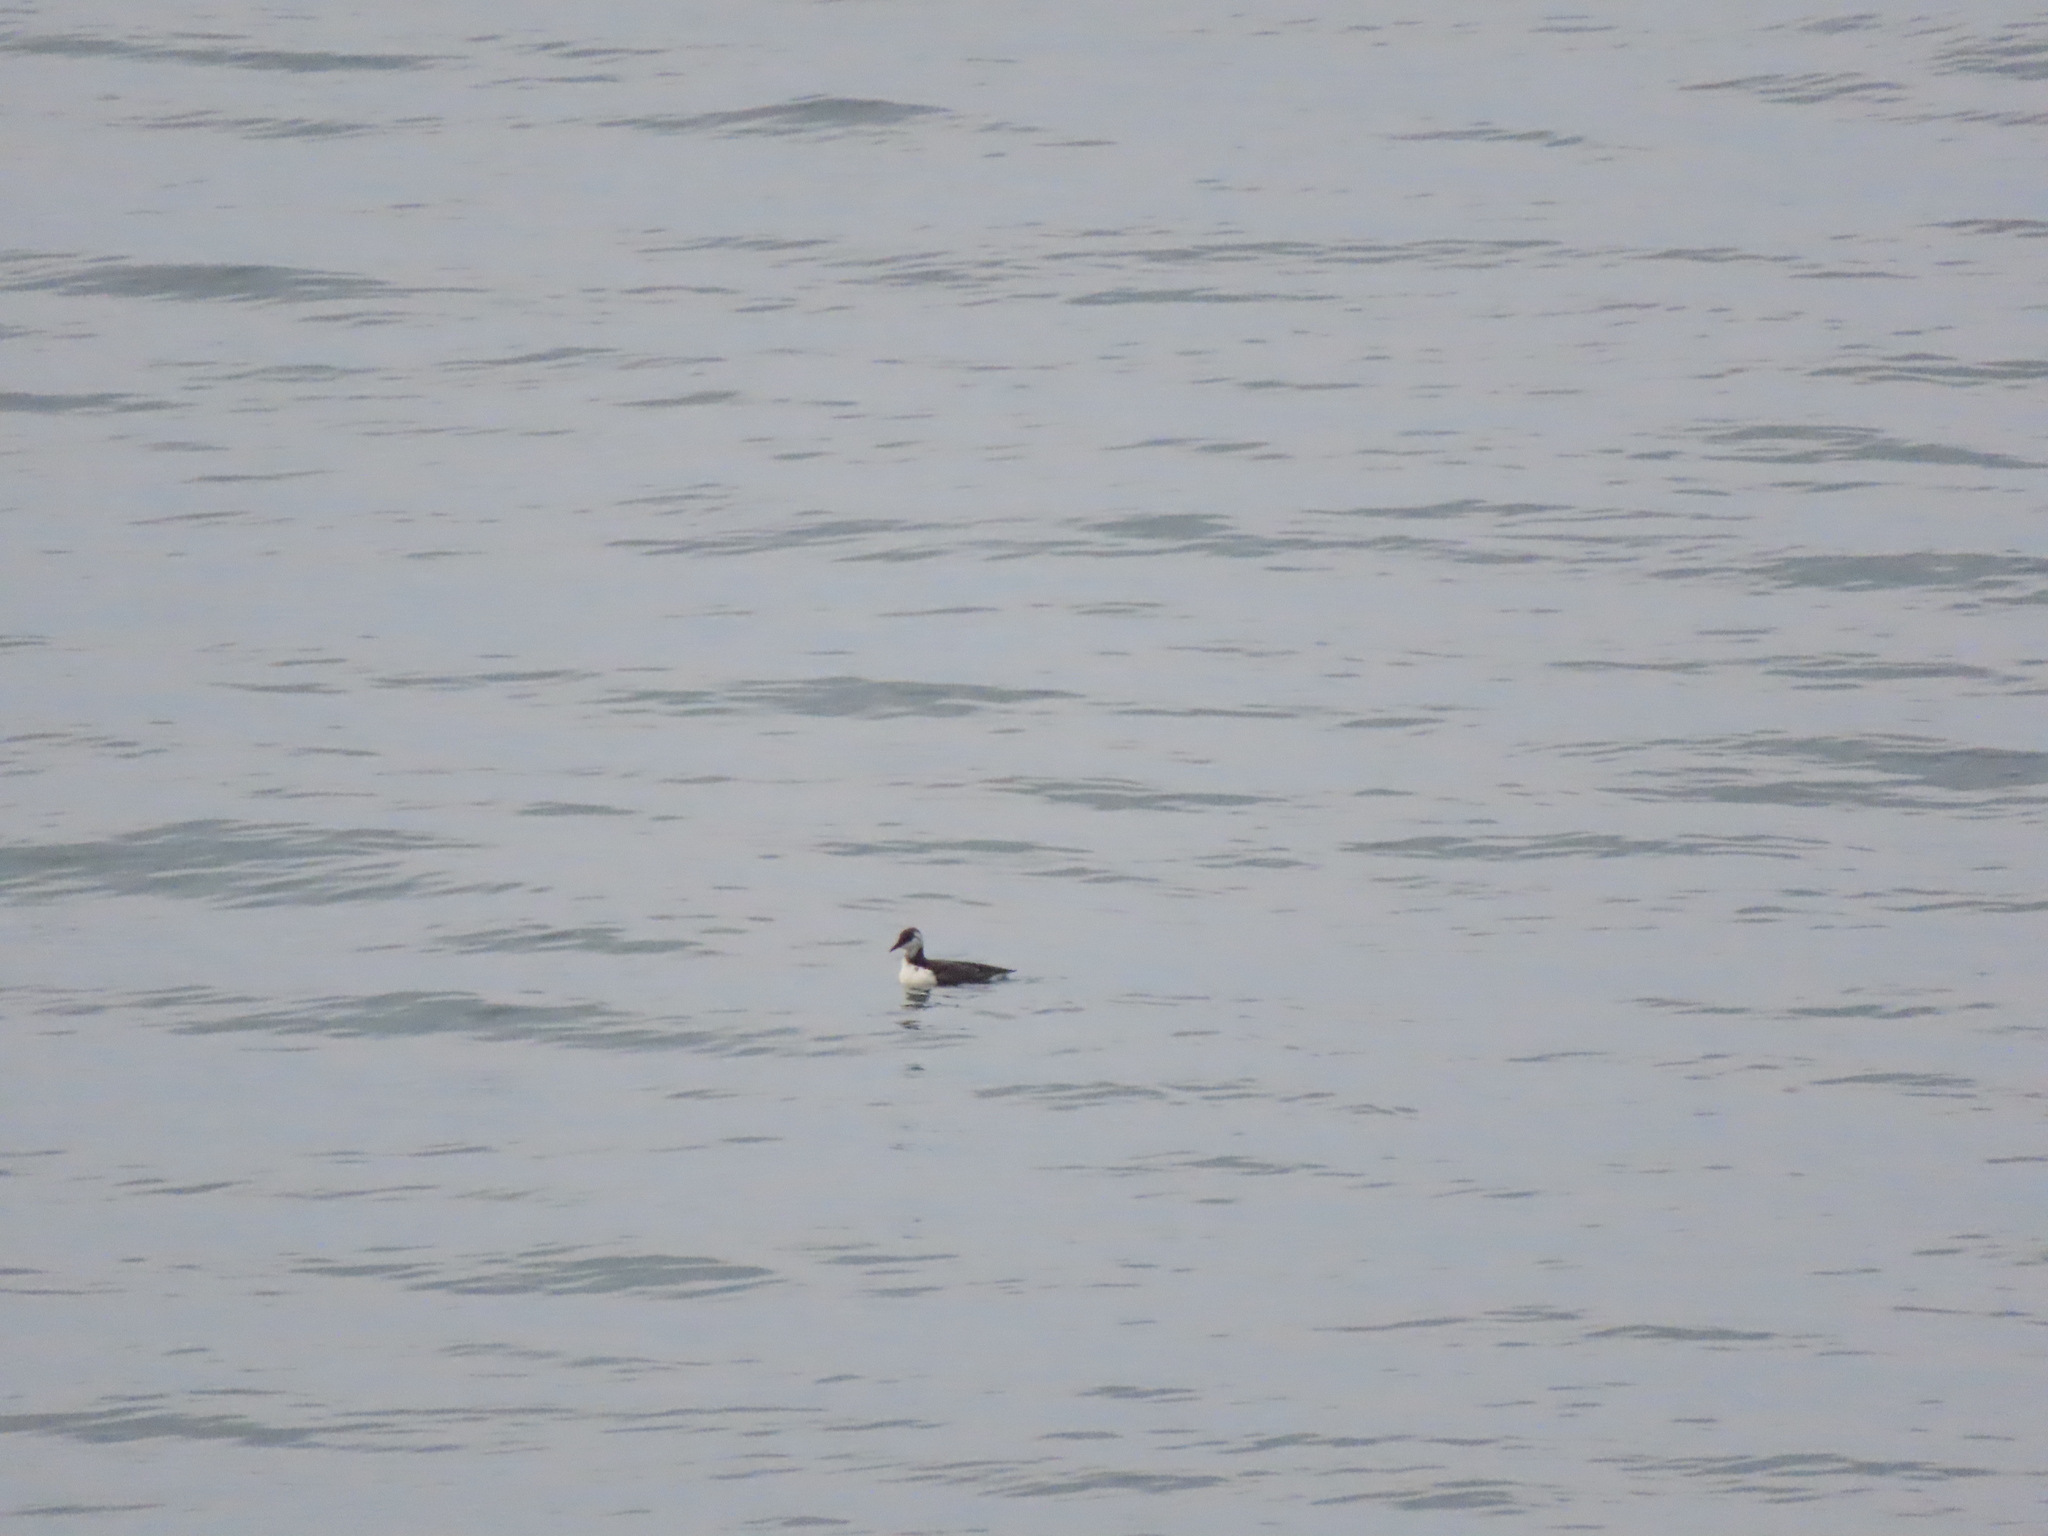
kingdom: Animalia
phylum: Chordata
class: Aves
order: Charadriiformes
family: Alcidae
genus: Uria
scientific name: Uria aalge
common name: Common murre
